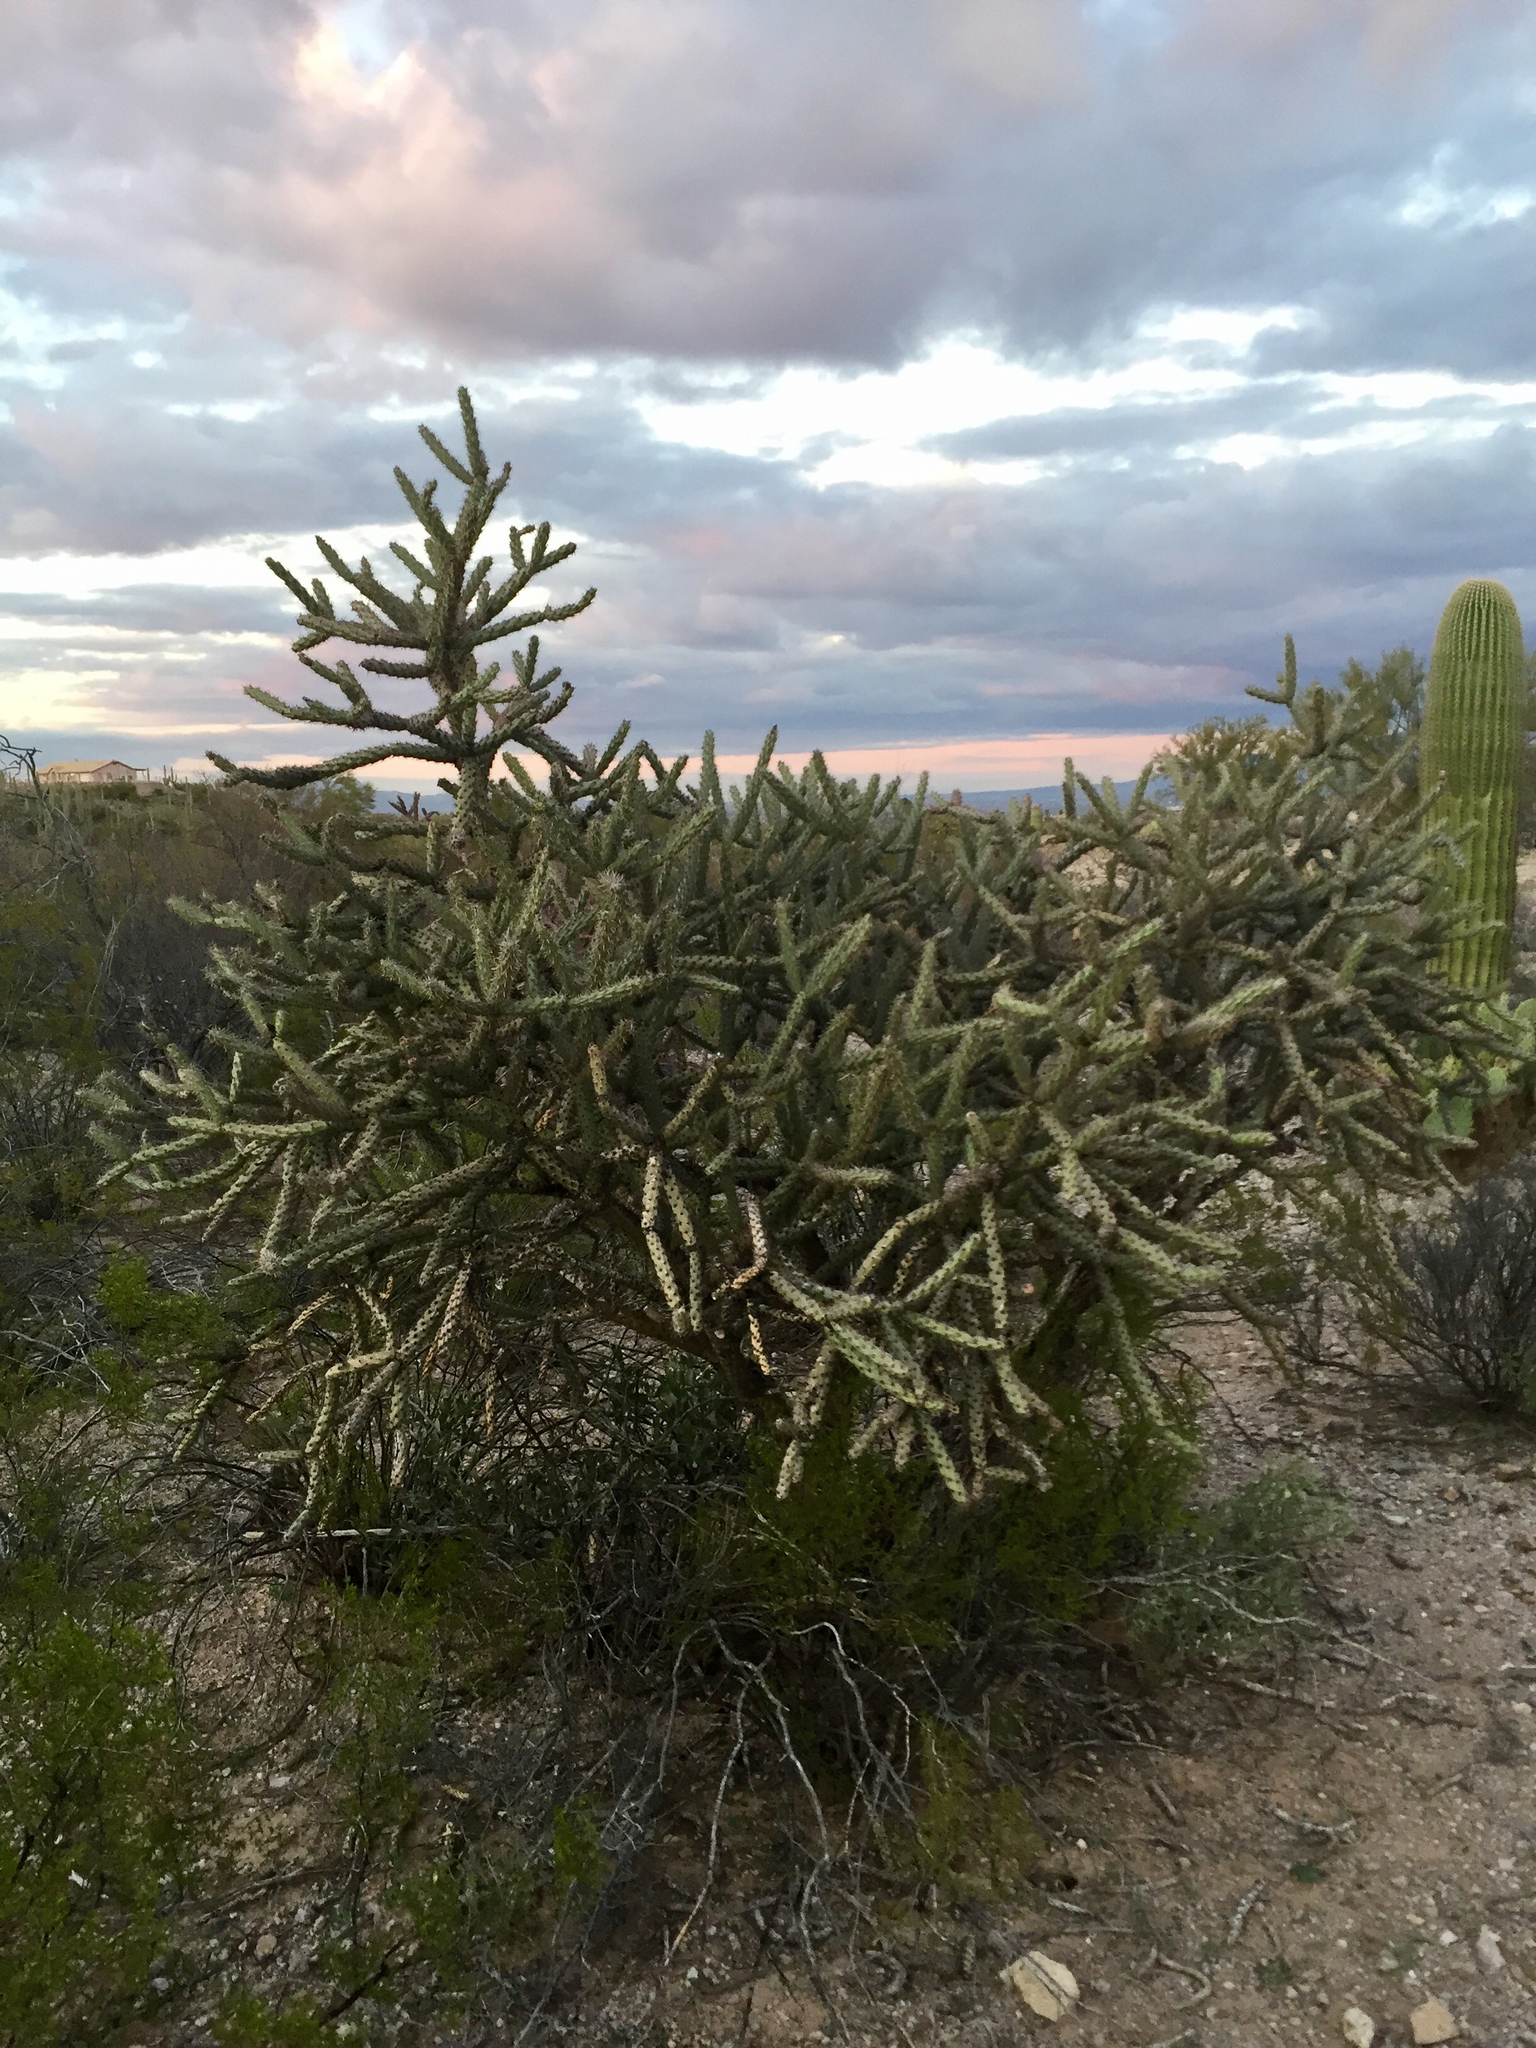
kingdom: Plantae
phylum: Tracheophyta
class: Magnoliopsida
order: Caryophyllales
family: Cactaceae
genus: Cylindropuntia
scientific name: Cylindropuntia thurberi
